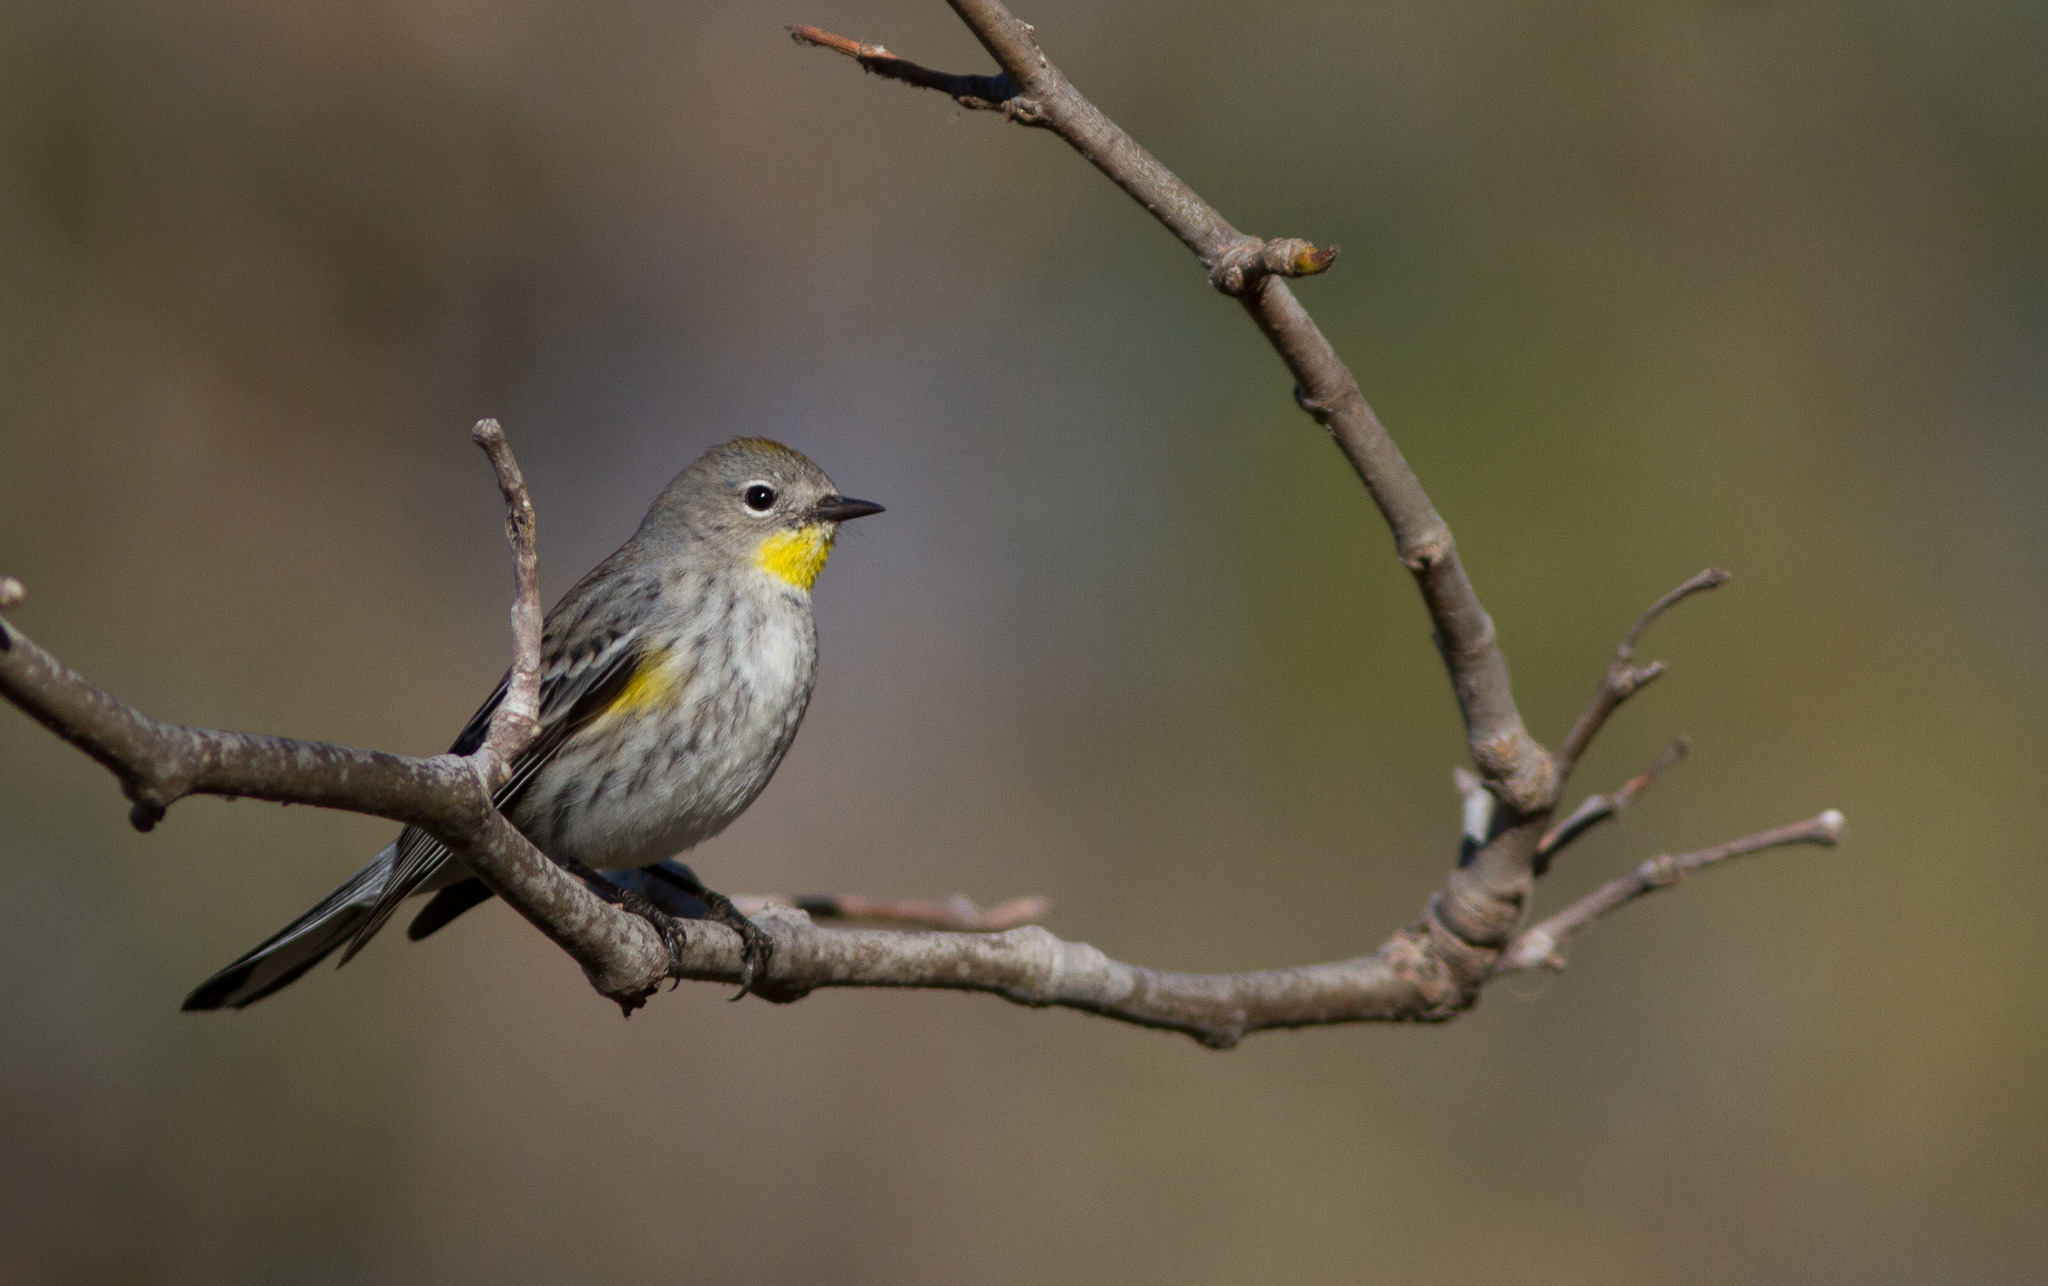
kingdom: Animalia
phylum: Chordata
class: Aves
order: Passeriformes
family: Parulidae
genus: Setophaga
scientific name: Setophaga auduboni
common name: Audubon's warbler
